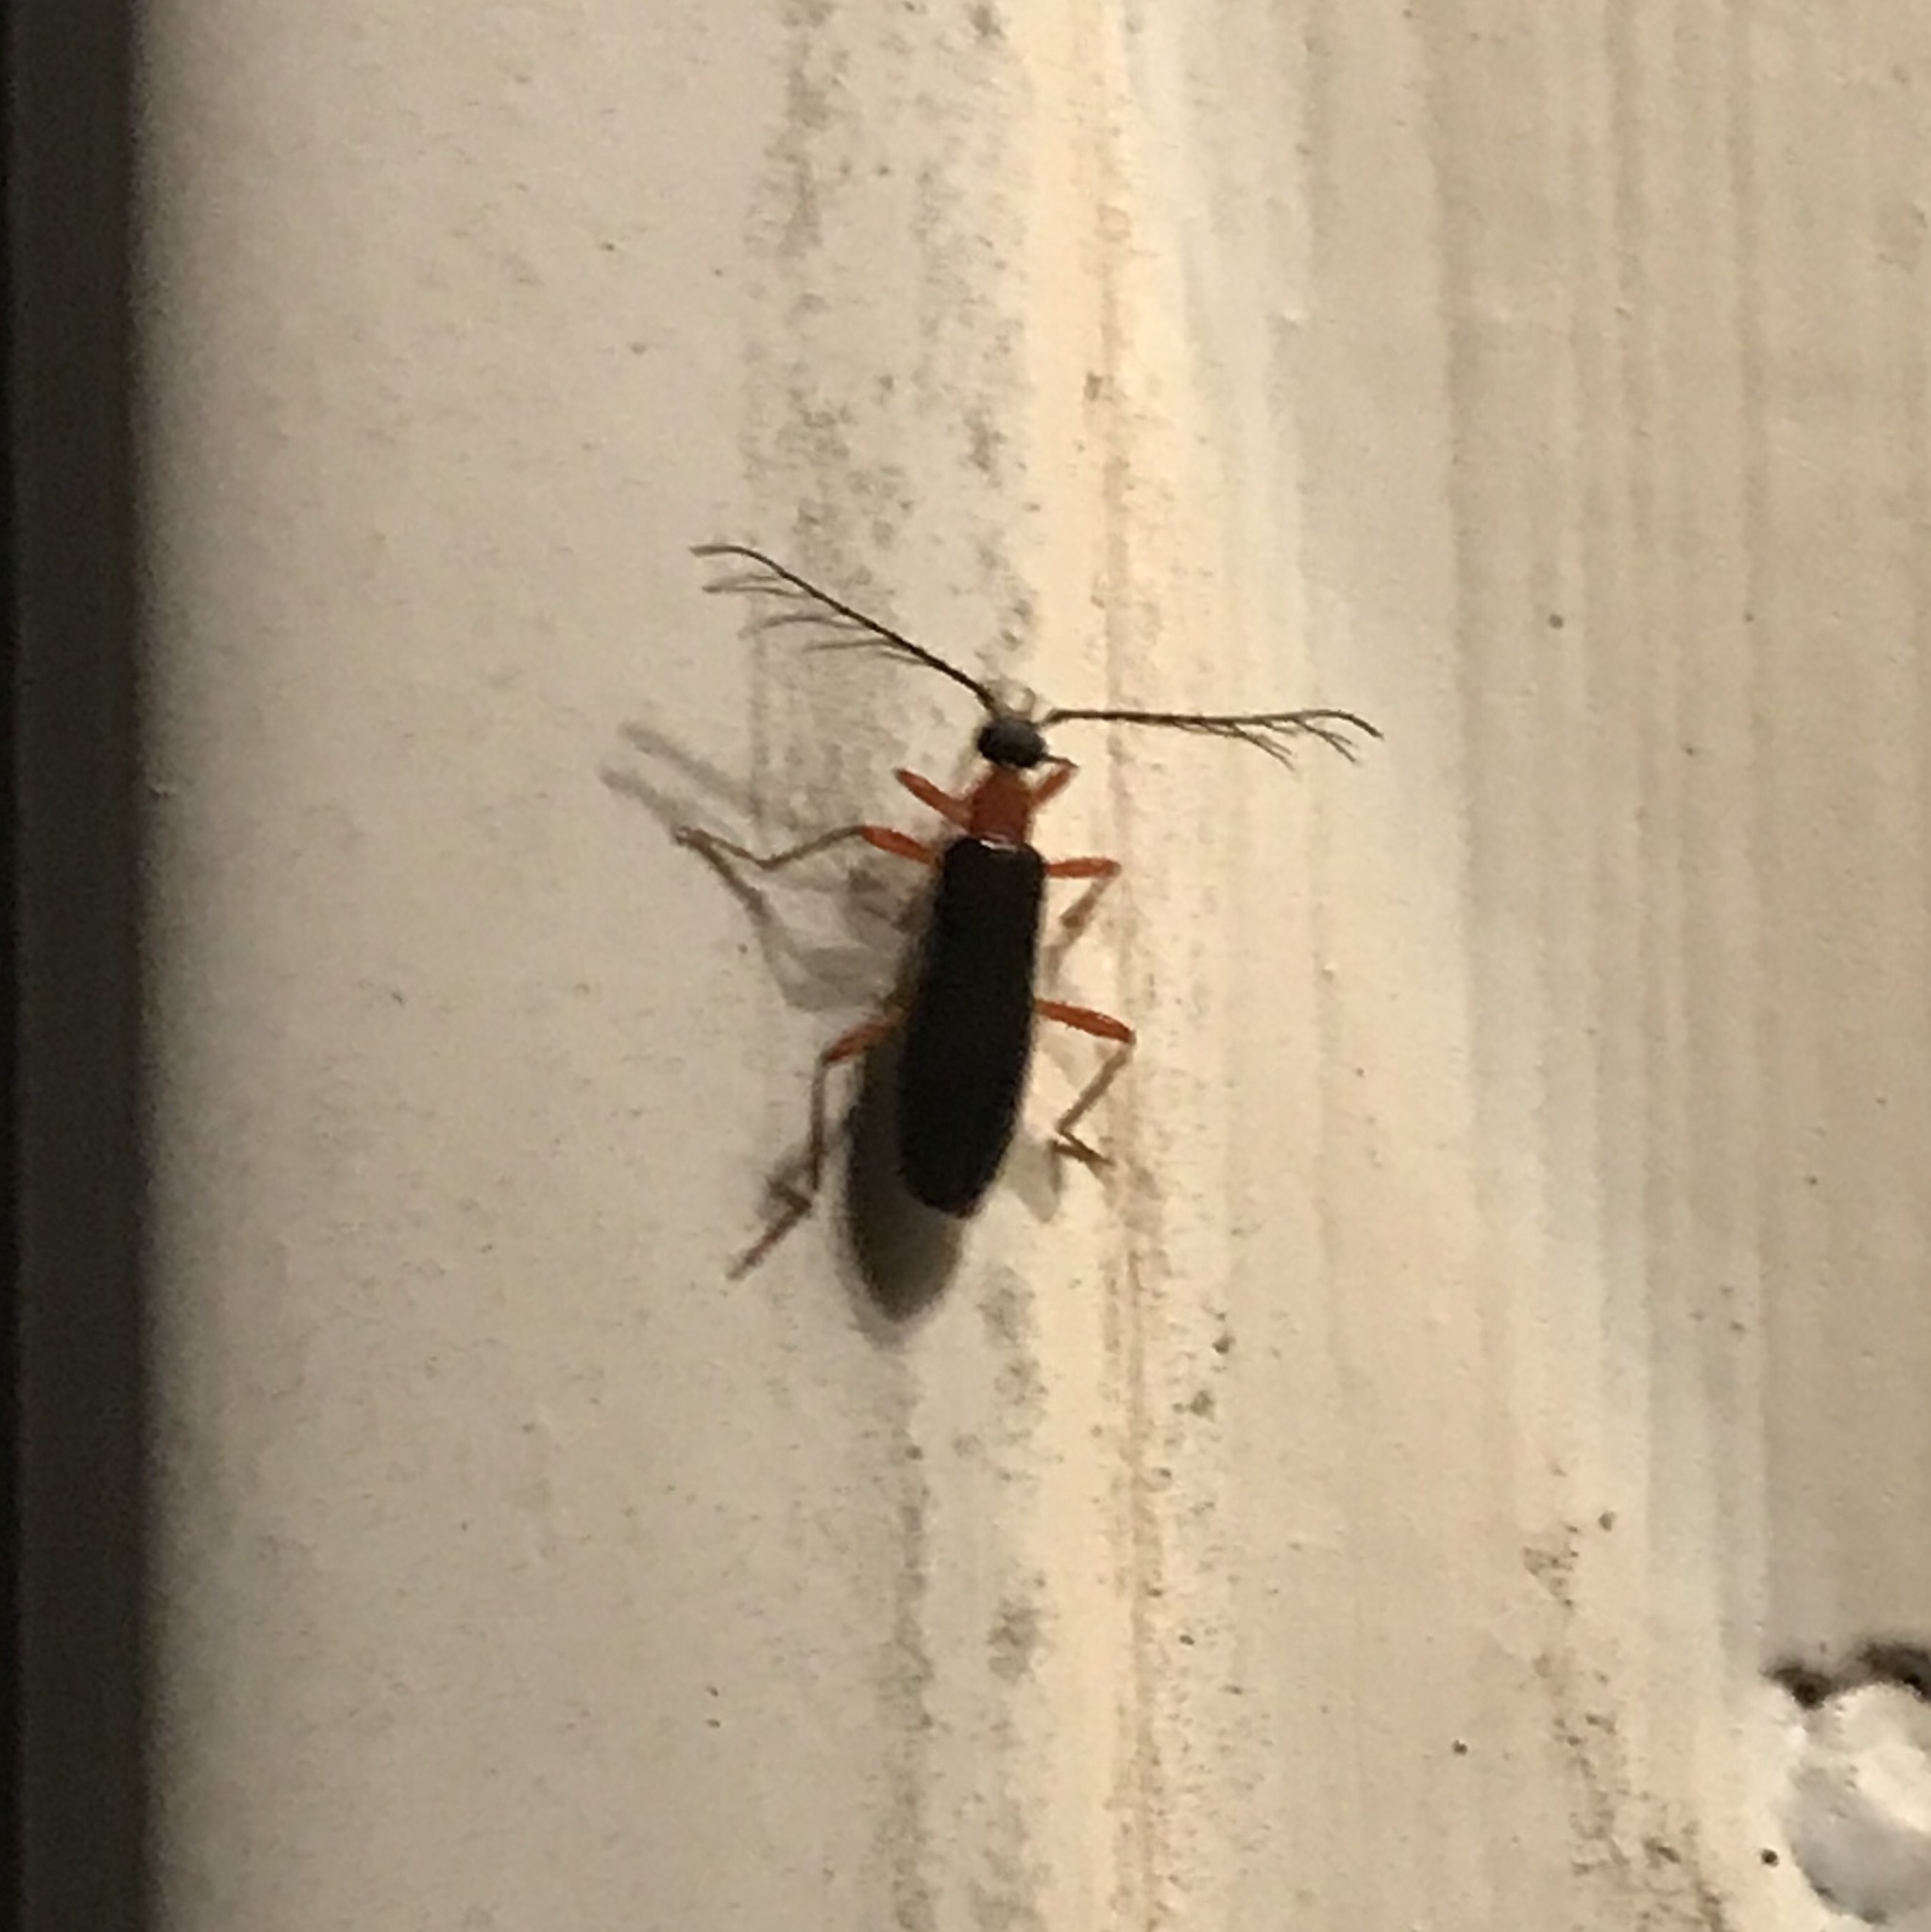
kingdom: Animalia
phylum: Arthropoda
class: Insecta
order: Coleoptera
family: Pyrochroidae
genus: Dendroides
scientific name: Dendroides canadensis
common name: Canada fire-colored beetle
